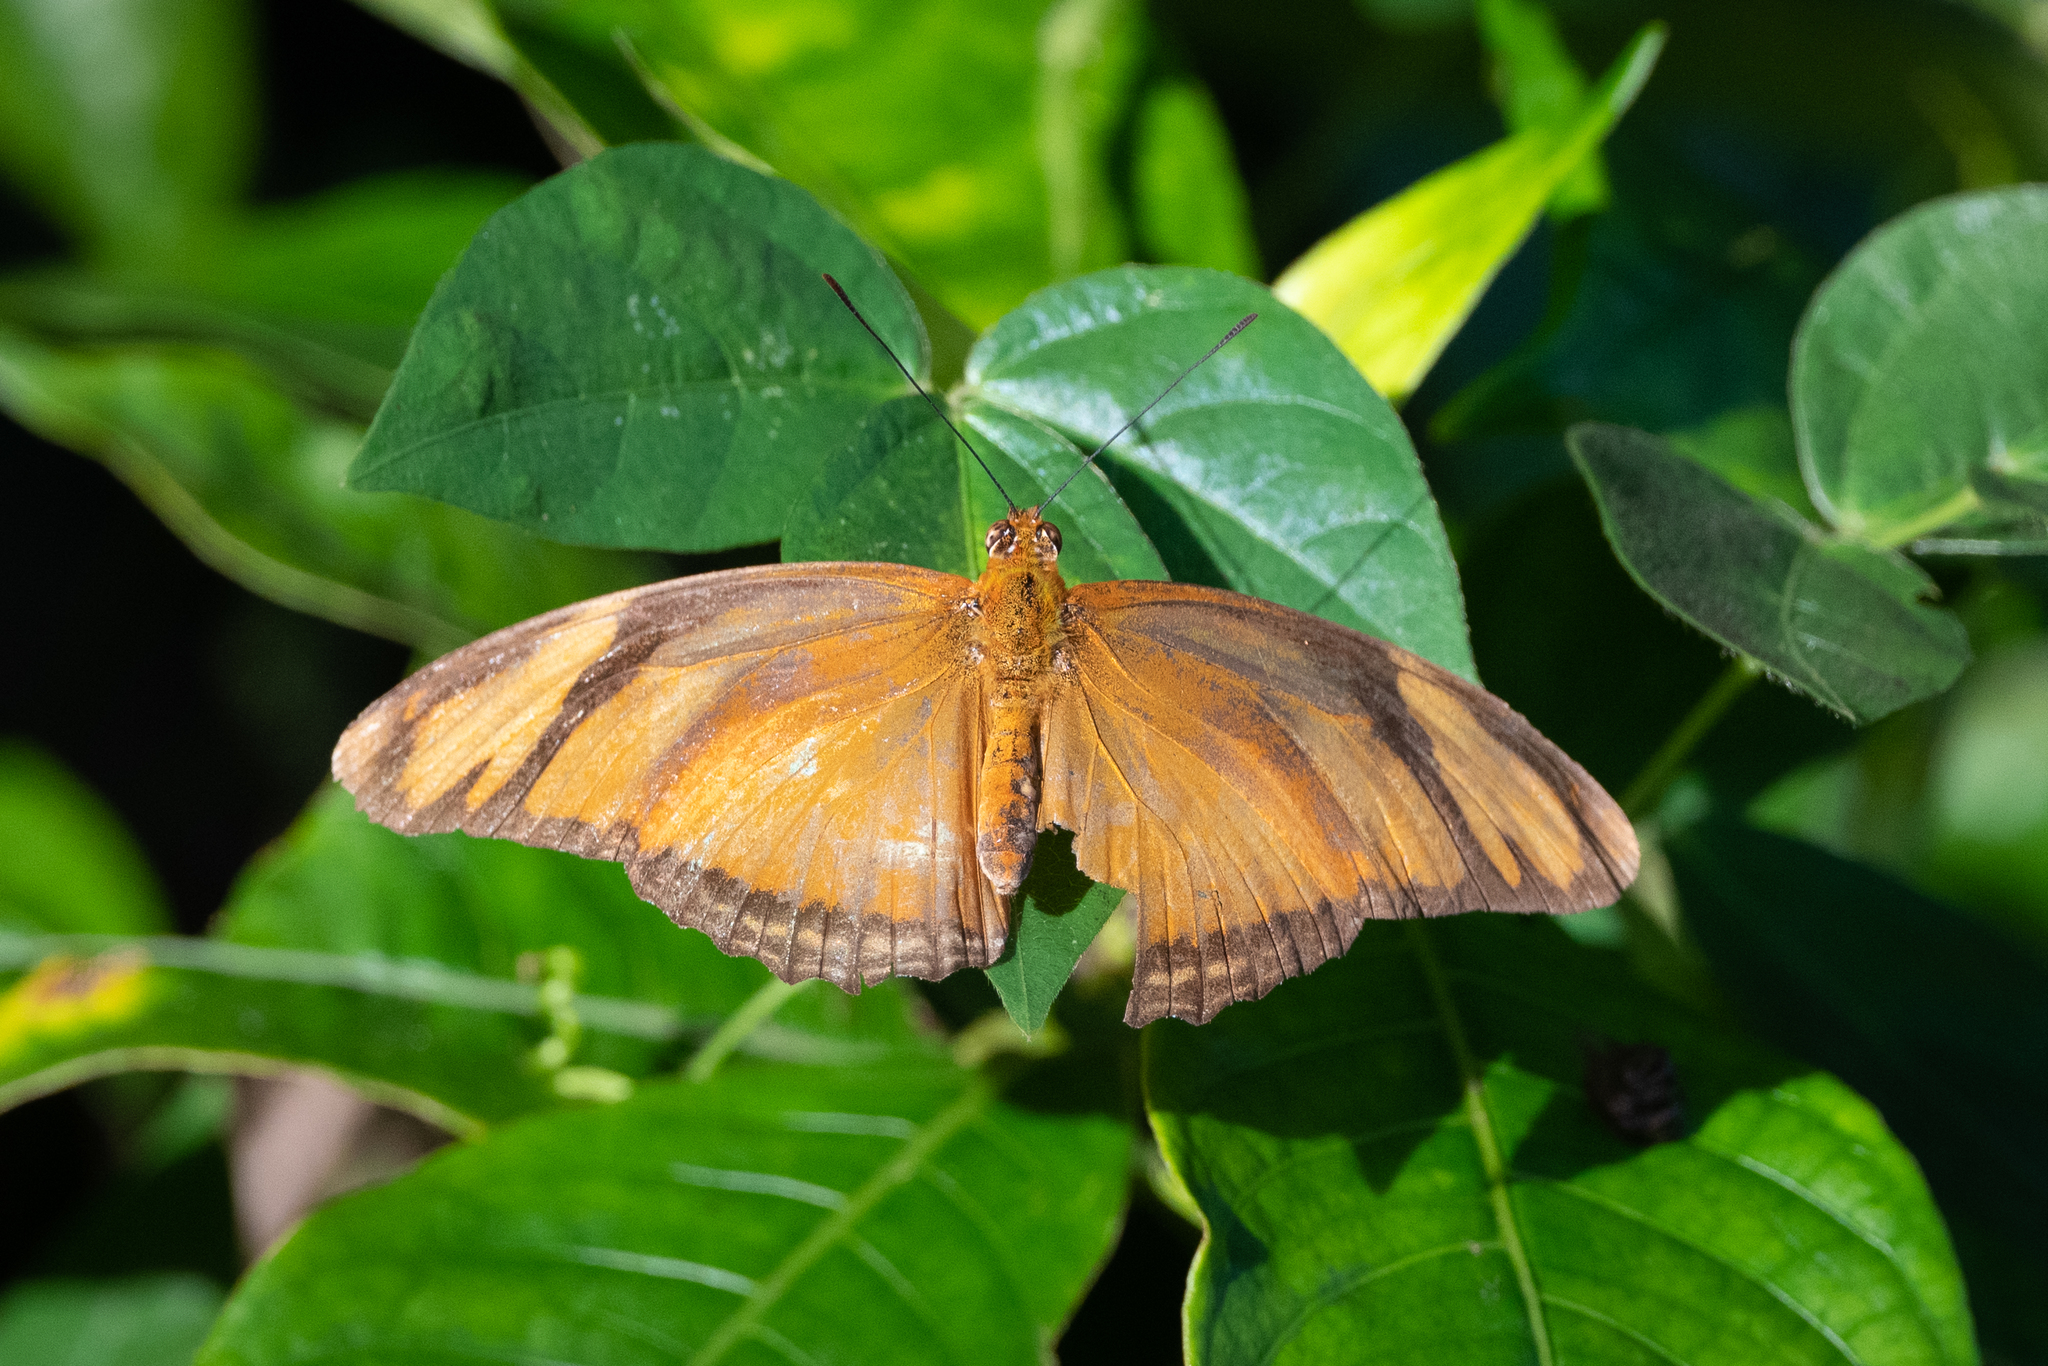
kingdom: Animalia
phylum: Arthropoda
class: Insecta
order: Lepidoptera
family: Nymphalidae
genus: Dryas
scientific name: Dryas iulia
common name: Flambeau
